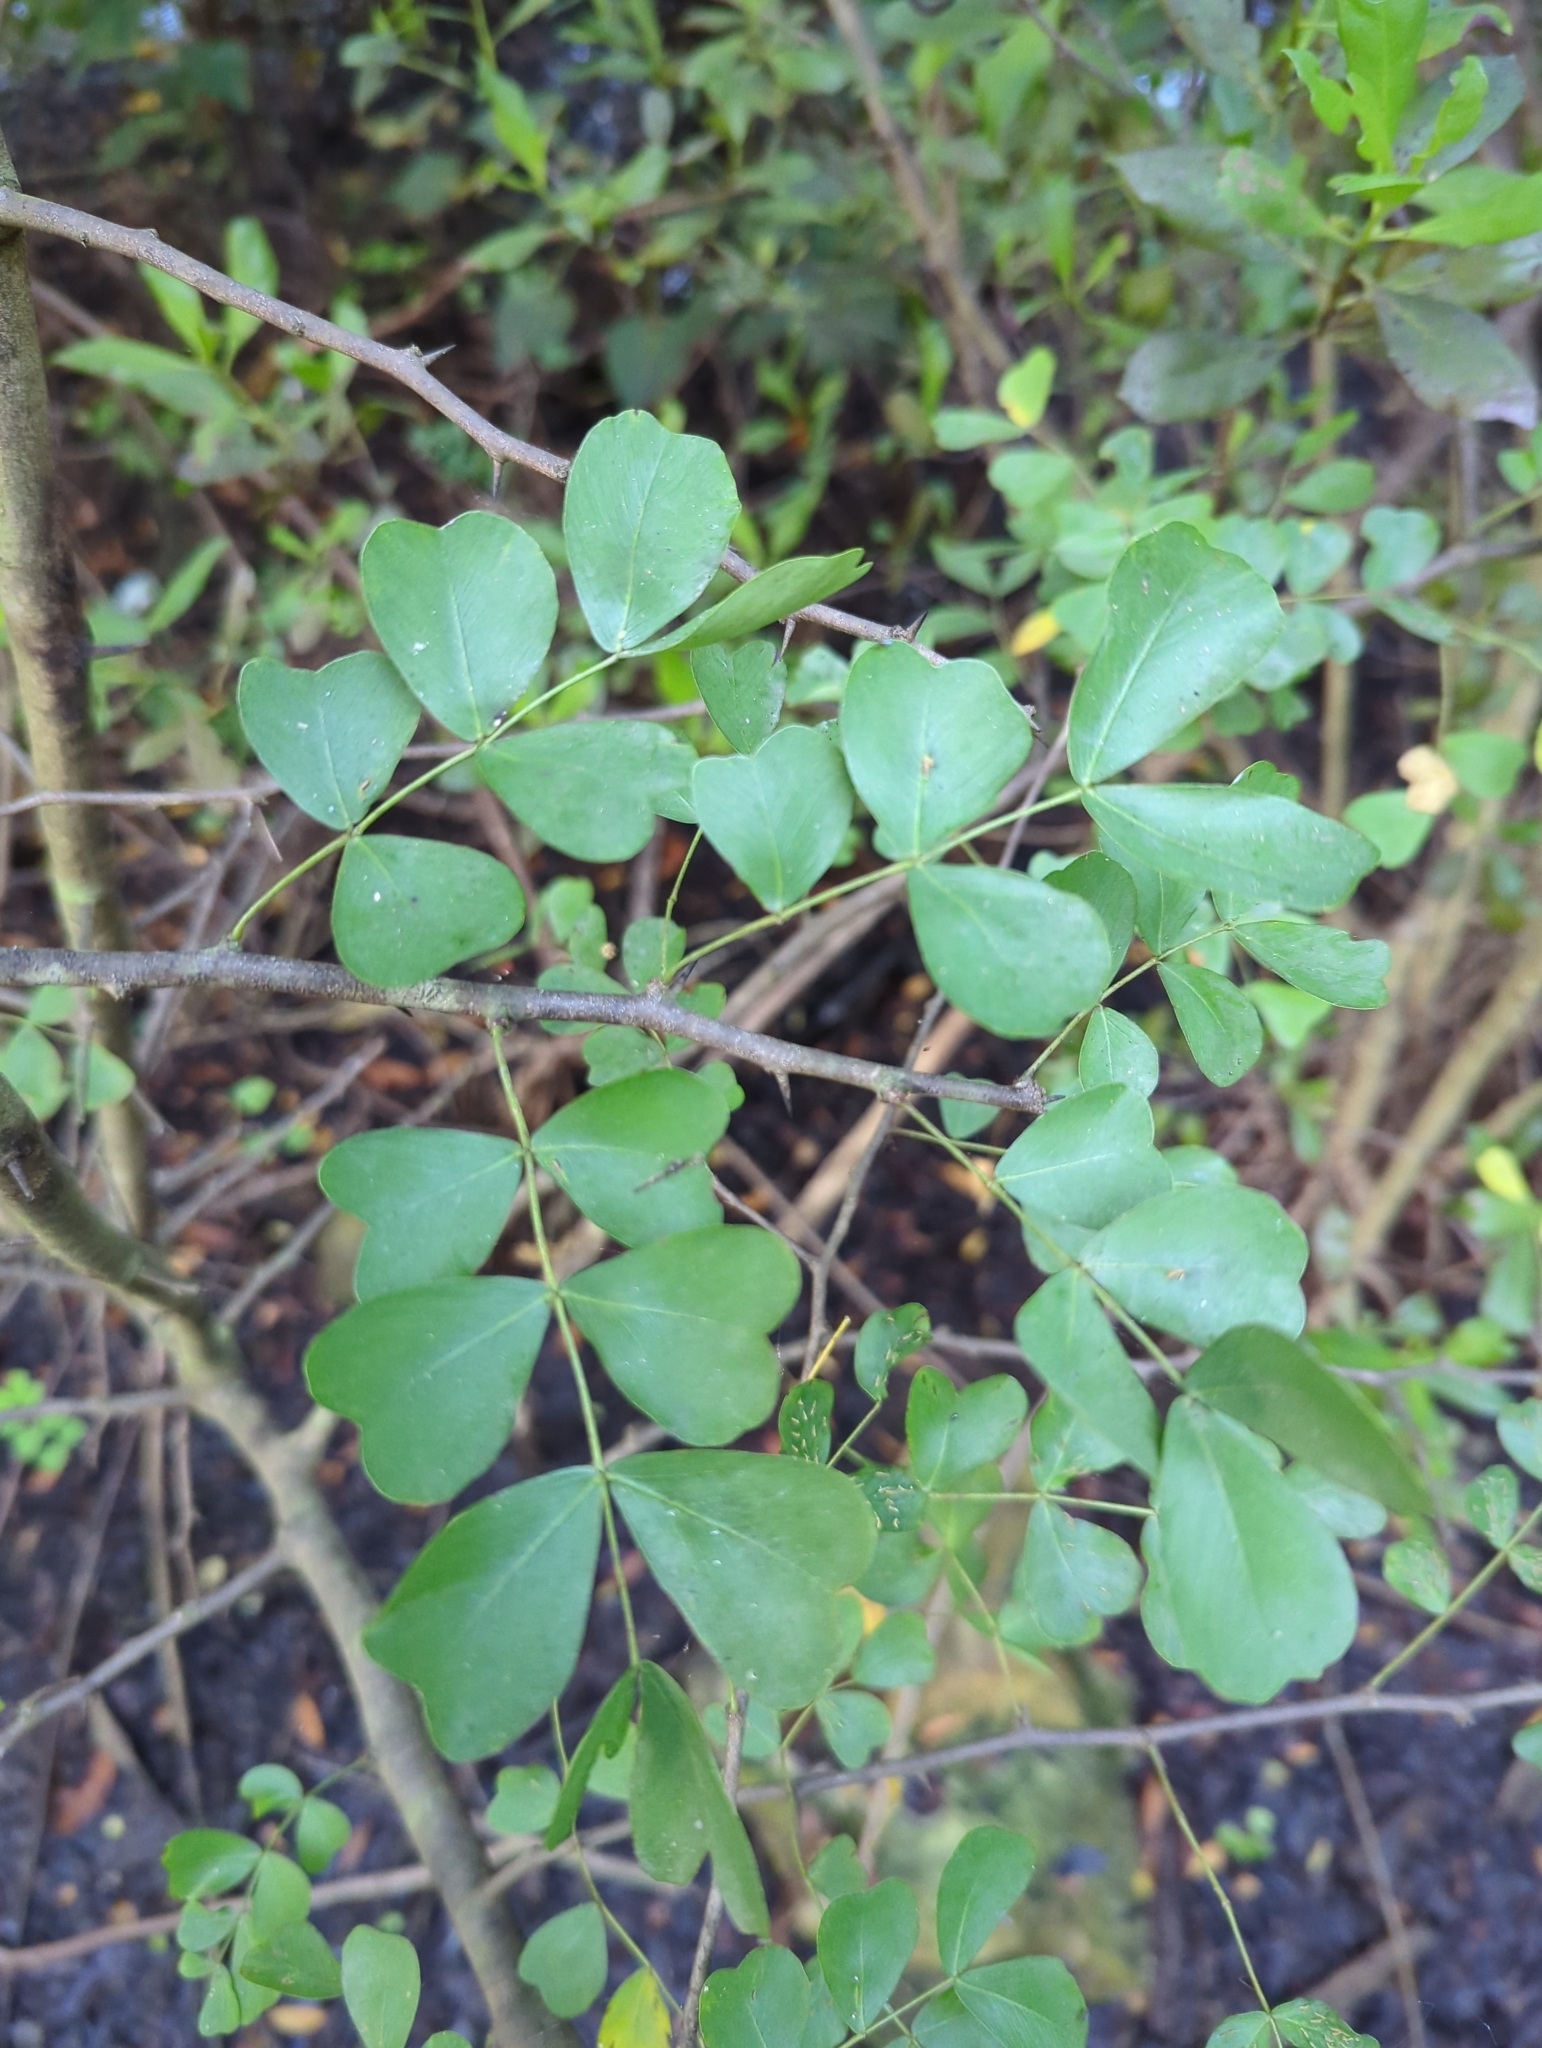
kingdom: Plantae
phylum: Tracheophyta
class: Magnoliopsida
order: Fabales
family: Fabaceae
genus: Haematoxylum
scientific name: Haematoxylum campechianum
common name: Logwood
